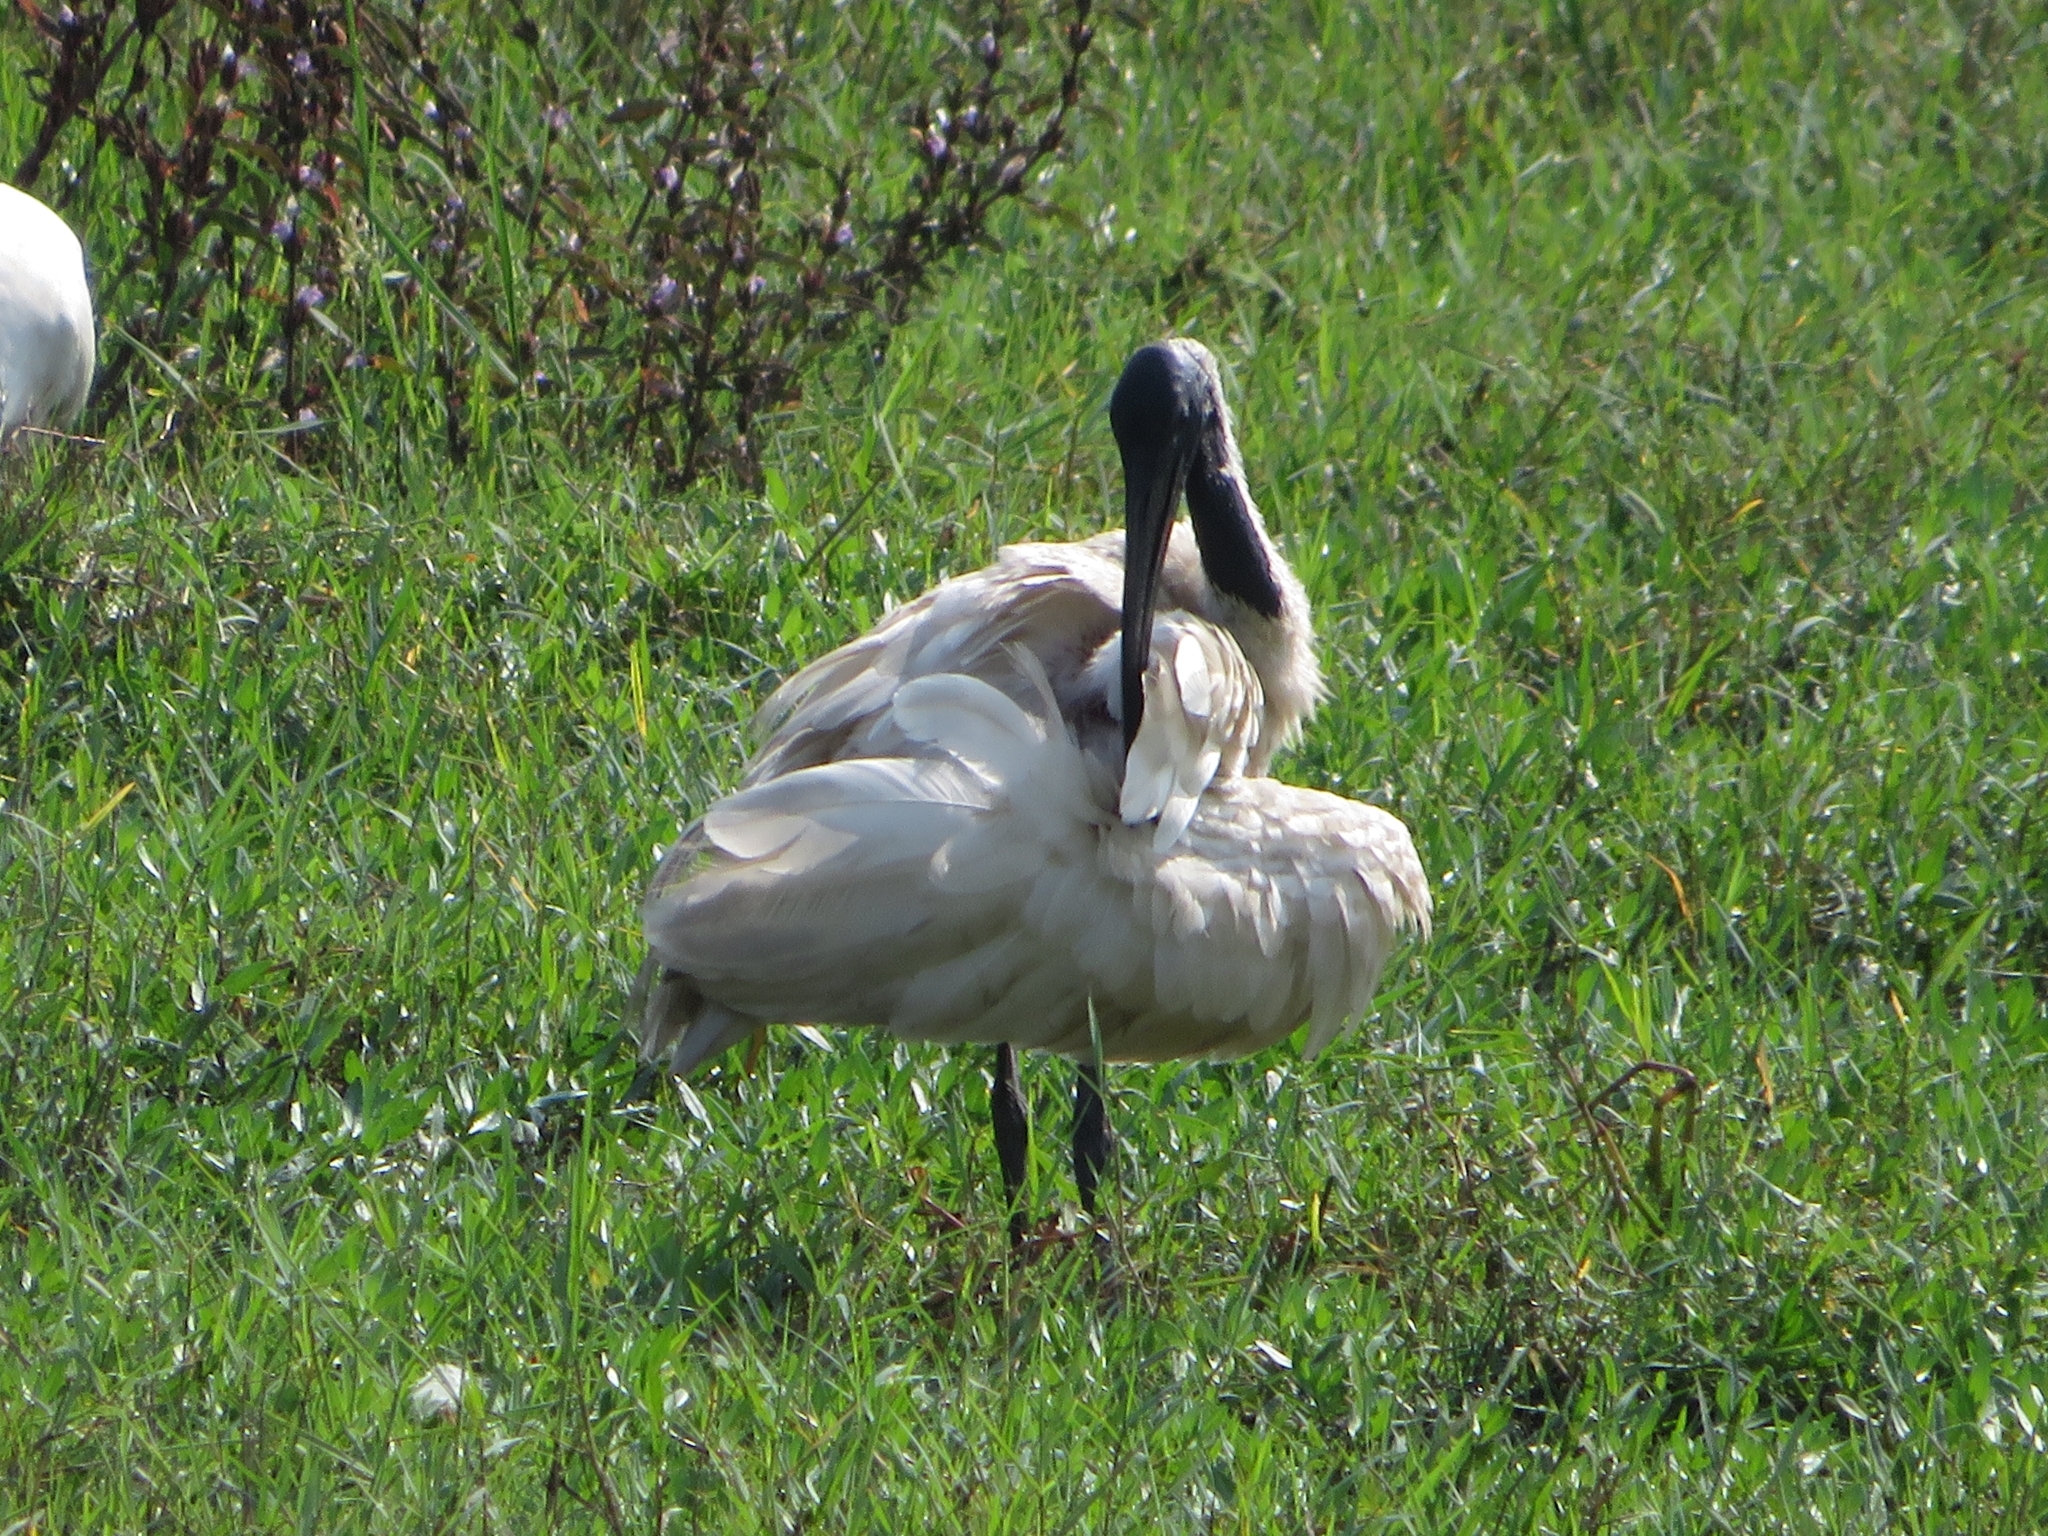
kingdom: Animalia
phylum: Chordata
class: Aves
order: Pelecaniformes
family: Threskiornithidae
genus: Threskiornis
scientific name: Threskiornis melanocephalus
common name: Black-headed ibis
